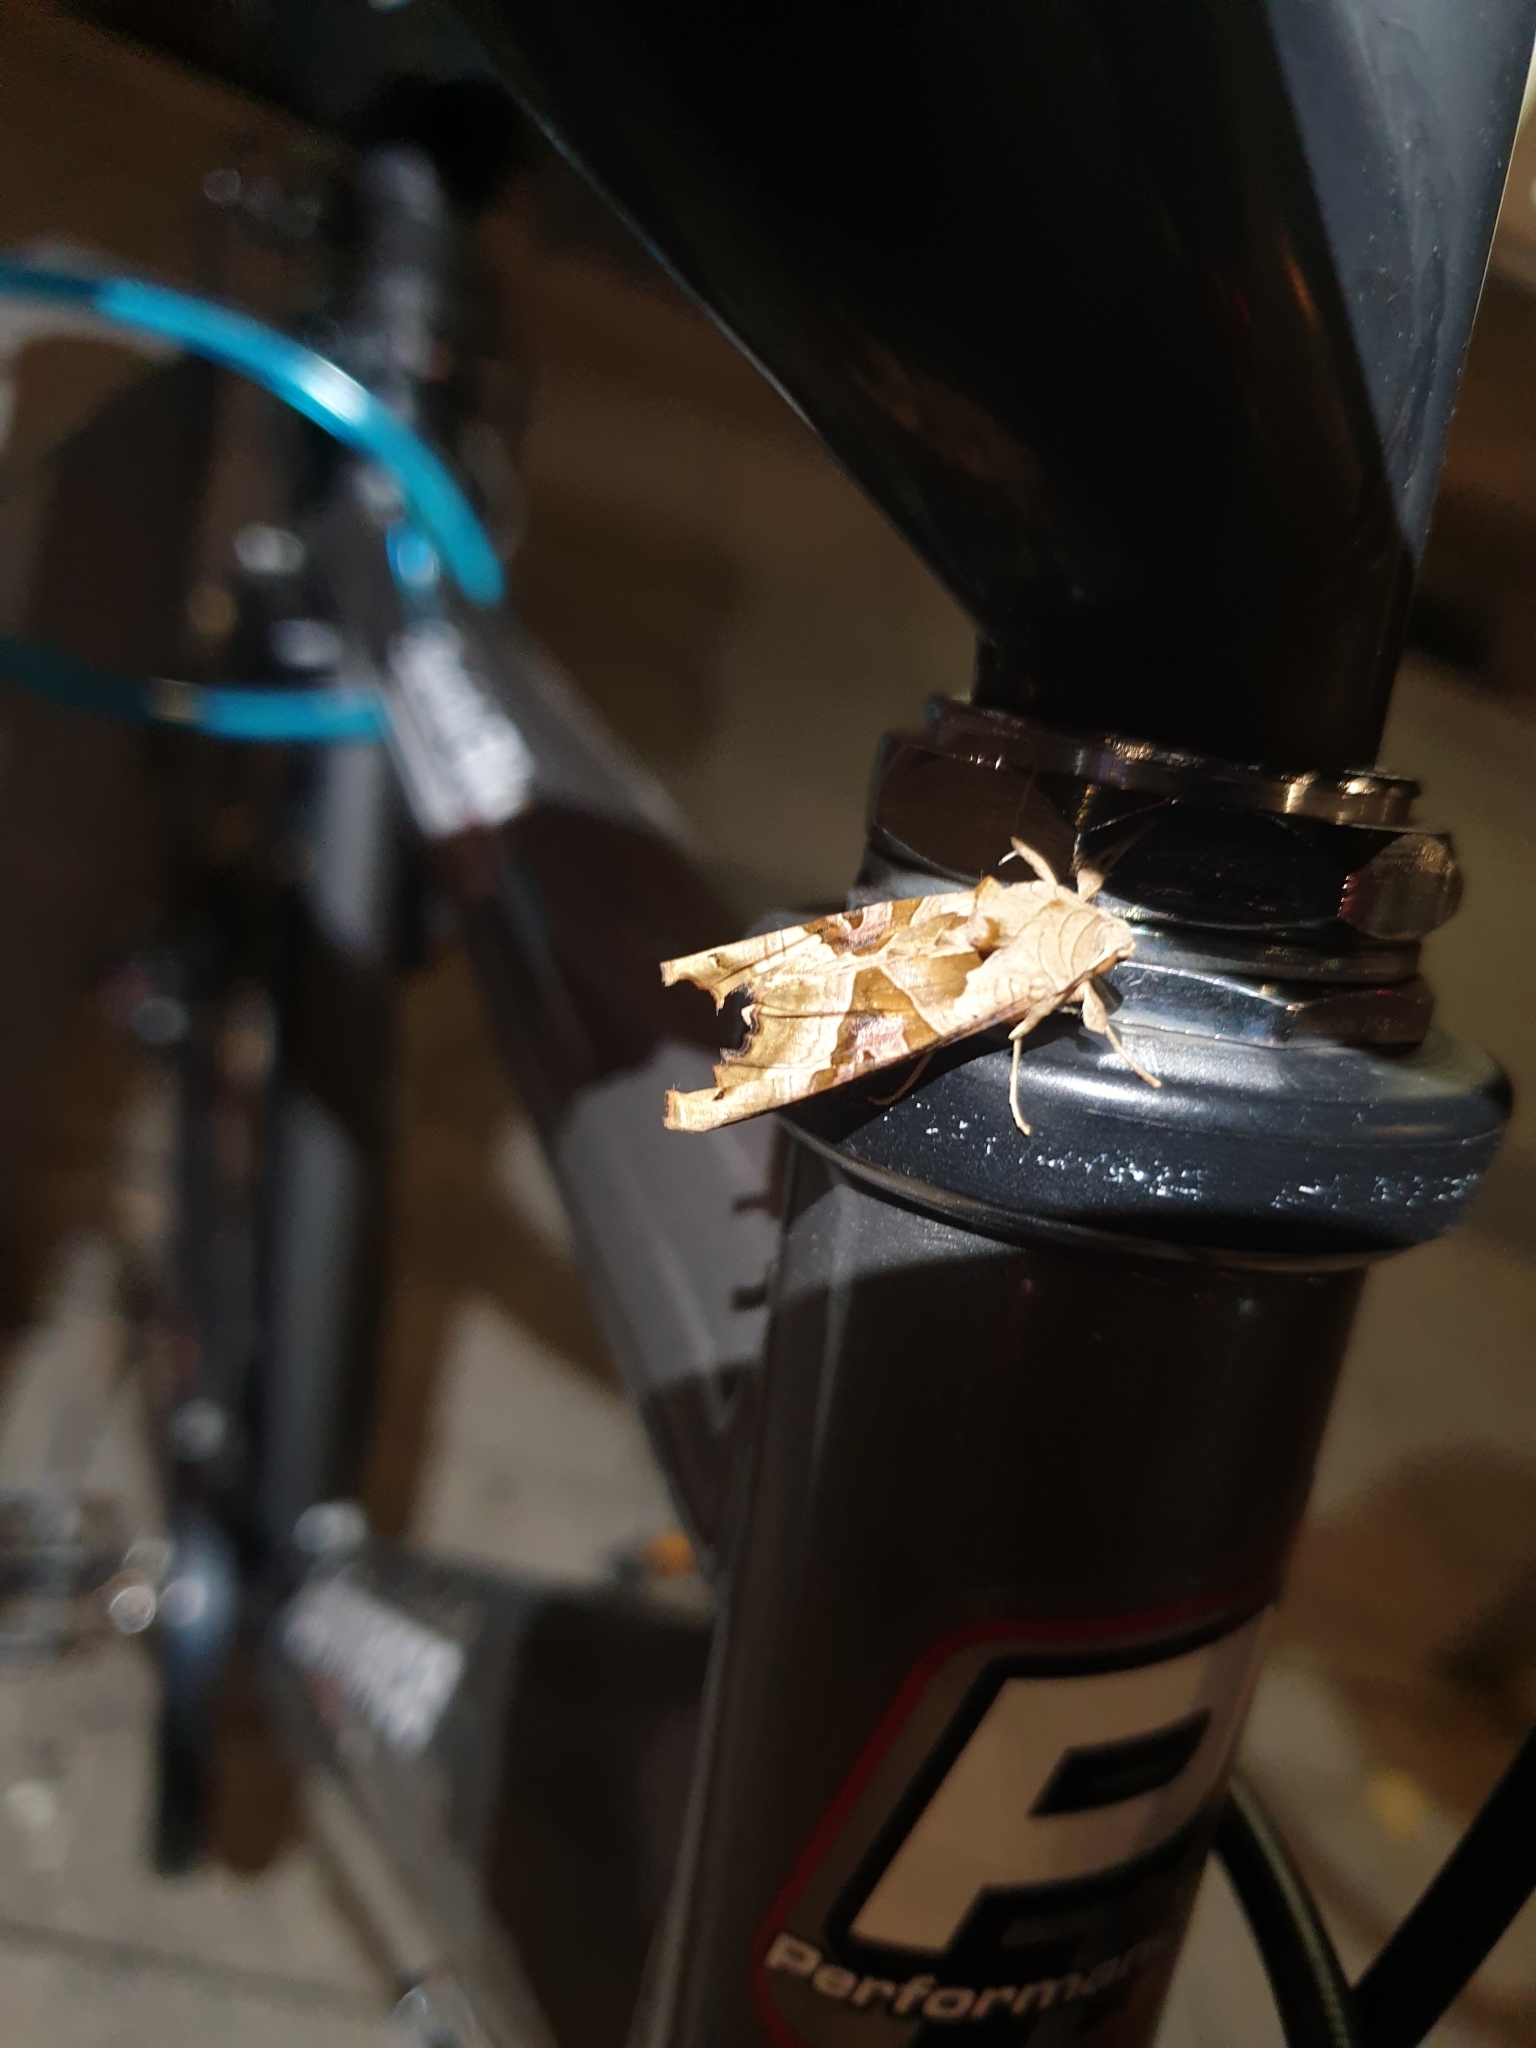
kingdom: Animalia
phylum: Arthropoda
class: Insecta
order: Lepidoptera
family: Noctuidae
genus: Phlogophora
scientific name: Phlogophora meticulosa
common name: Angle shades
